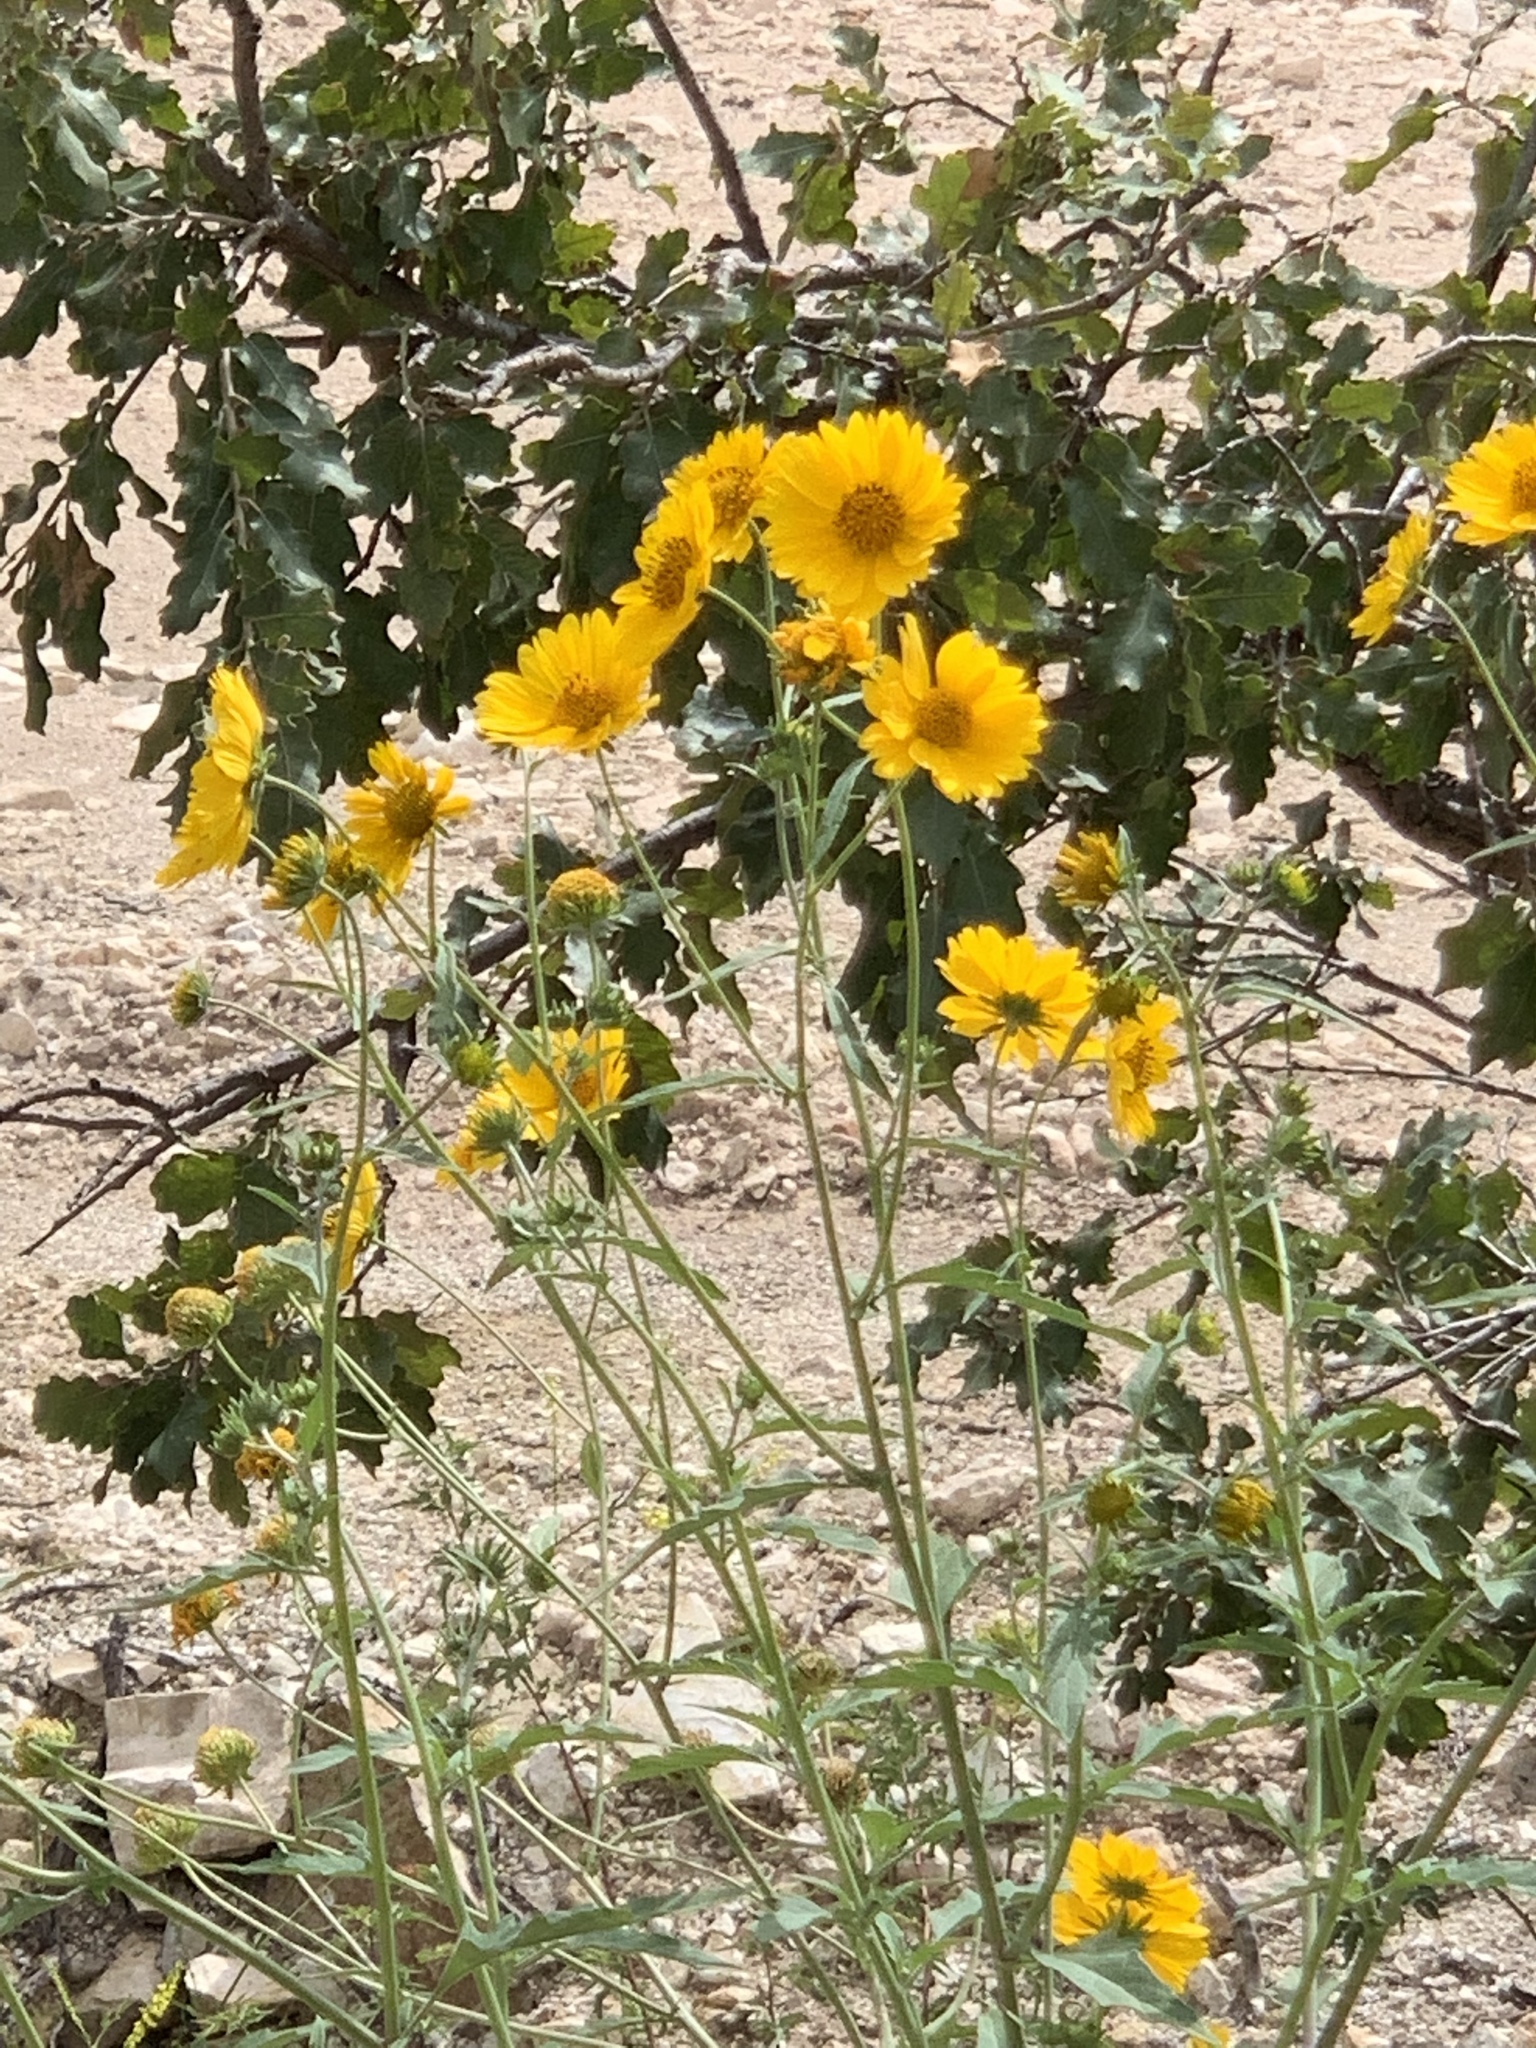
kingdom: Plantae
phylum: Tracheophyta
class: Magnoliopsida
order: Asterales
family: Asteraceae
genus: Verbesina
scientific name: Verbesina encelioides
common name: Golden crownbeard
